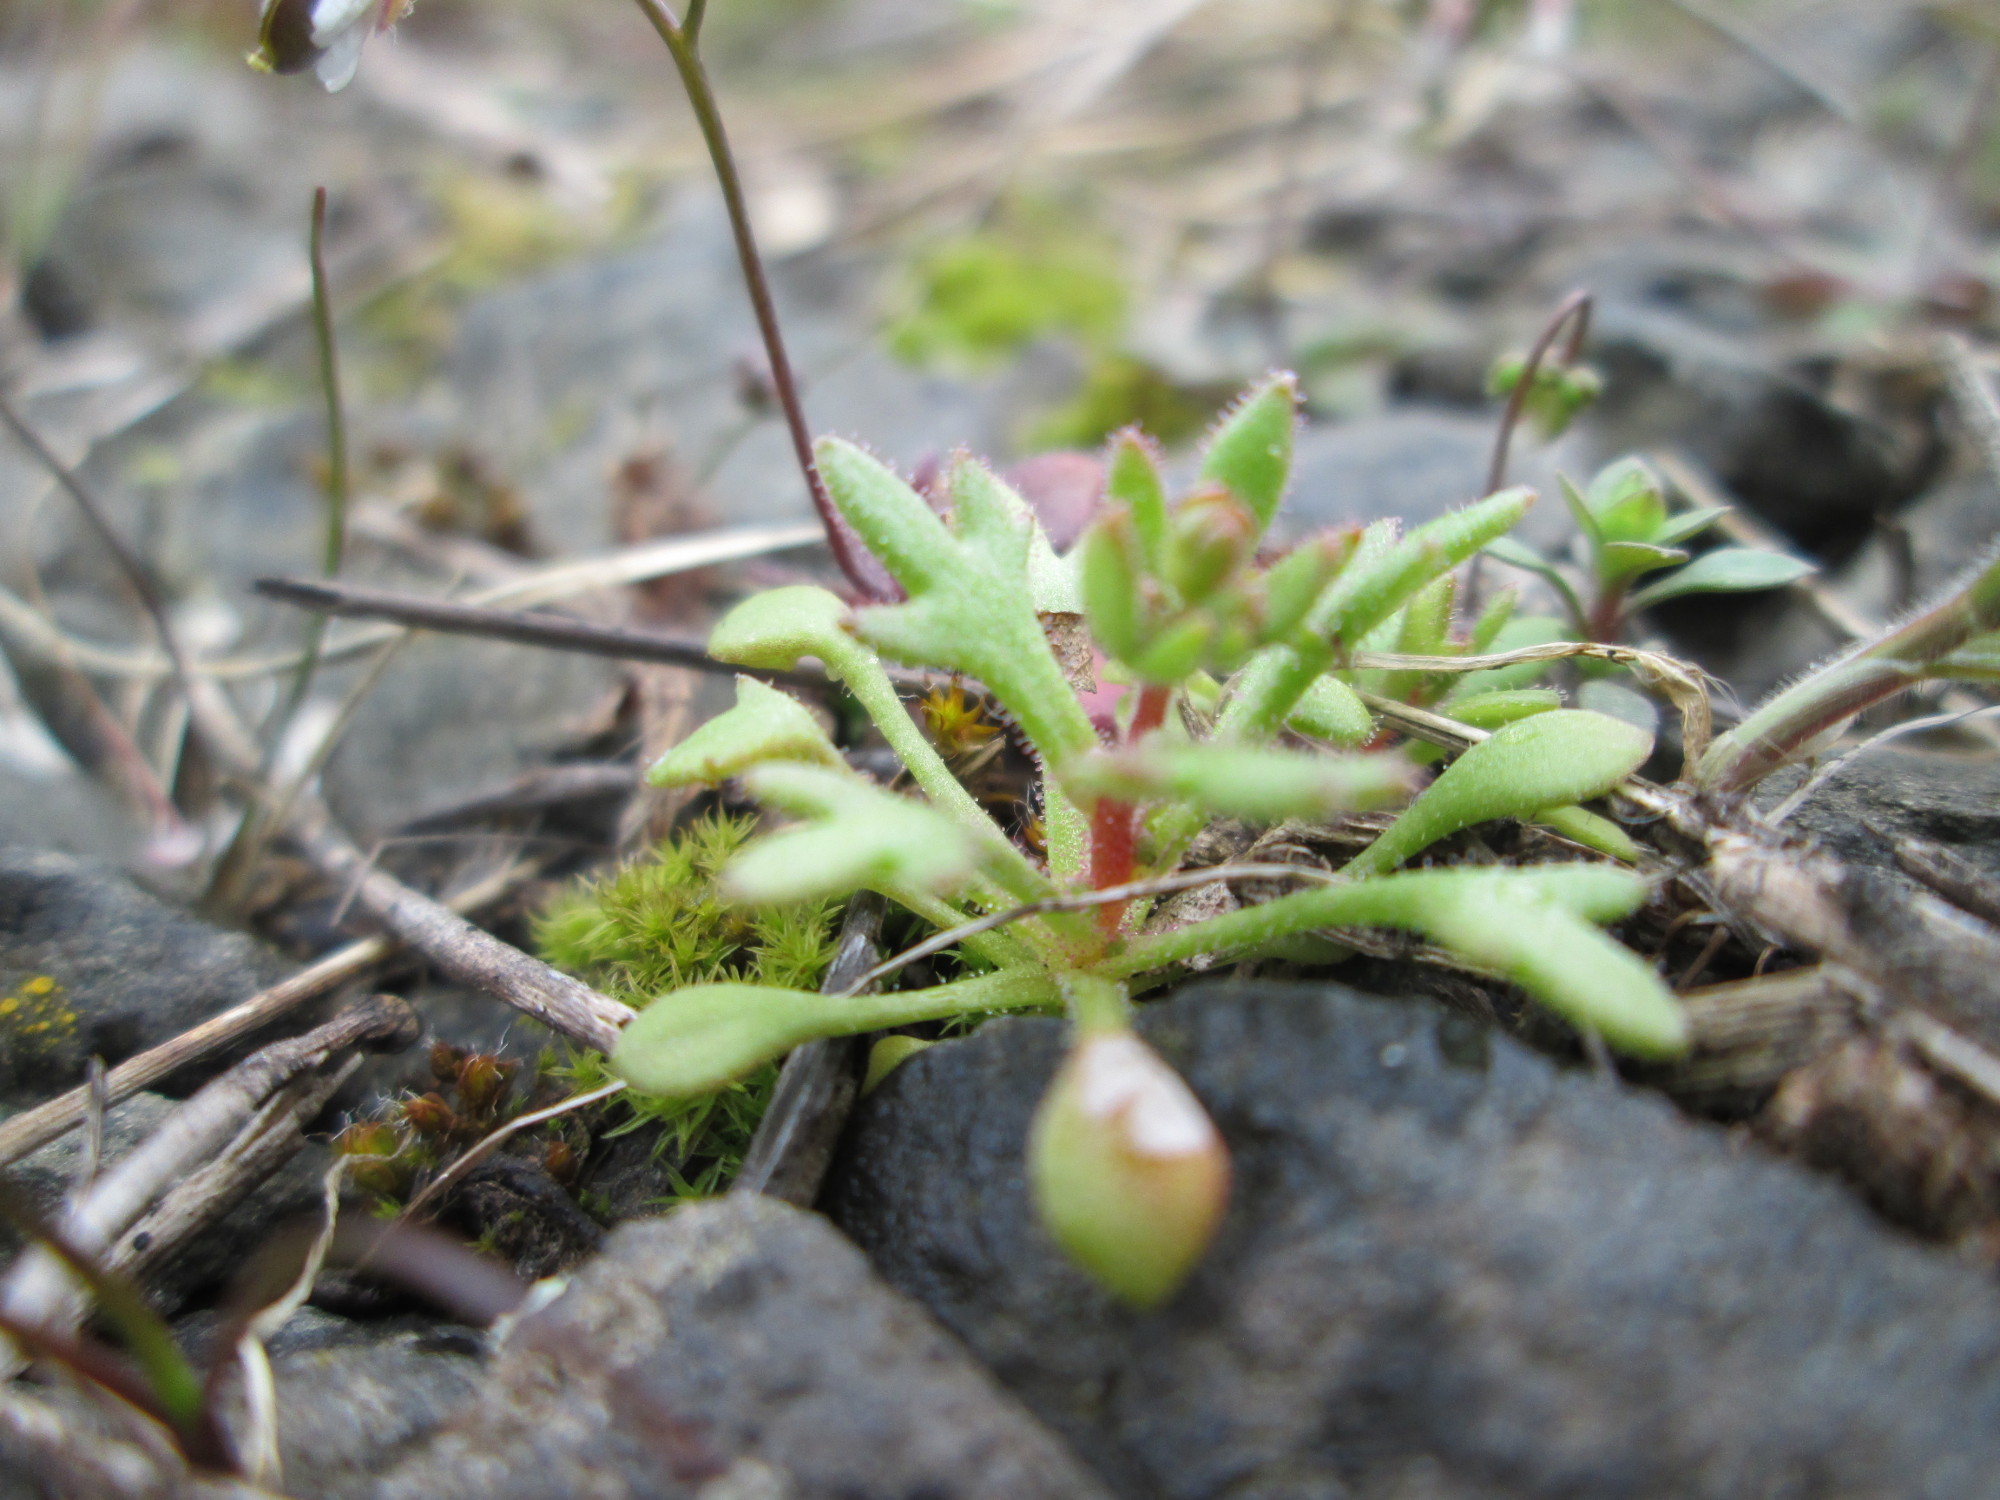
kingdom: Plantae
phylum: Tracheophyta
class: Magnoliopsida
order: Saxifragales
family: Saxifragaceae
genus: Saxifraga
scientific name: Saxifraga tridactylites
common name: Rue-leaved saxifrage
